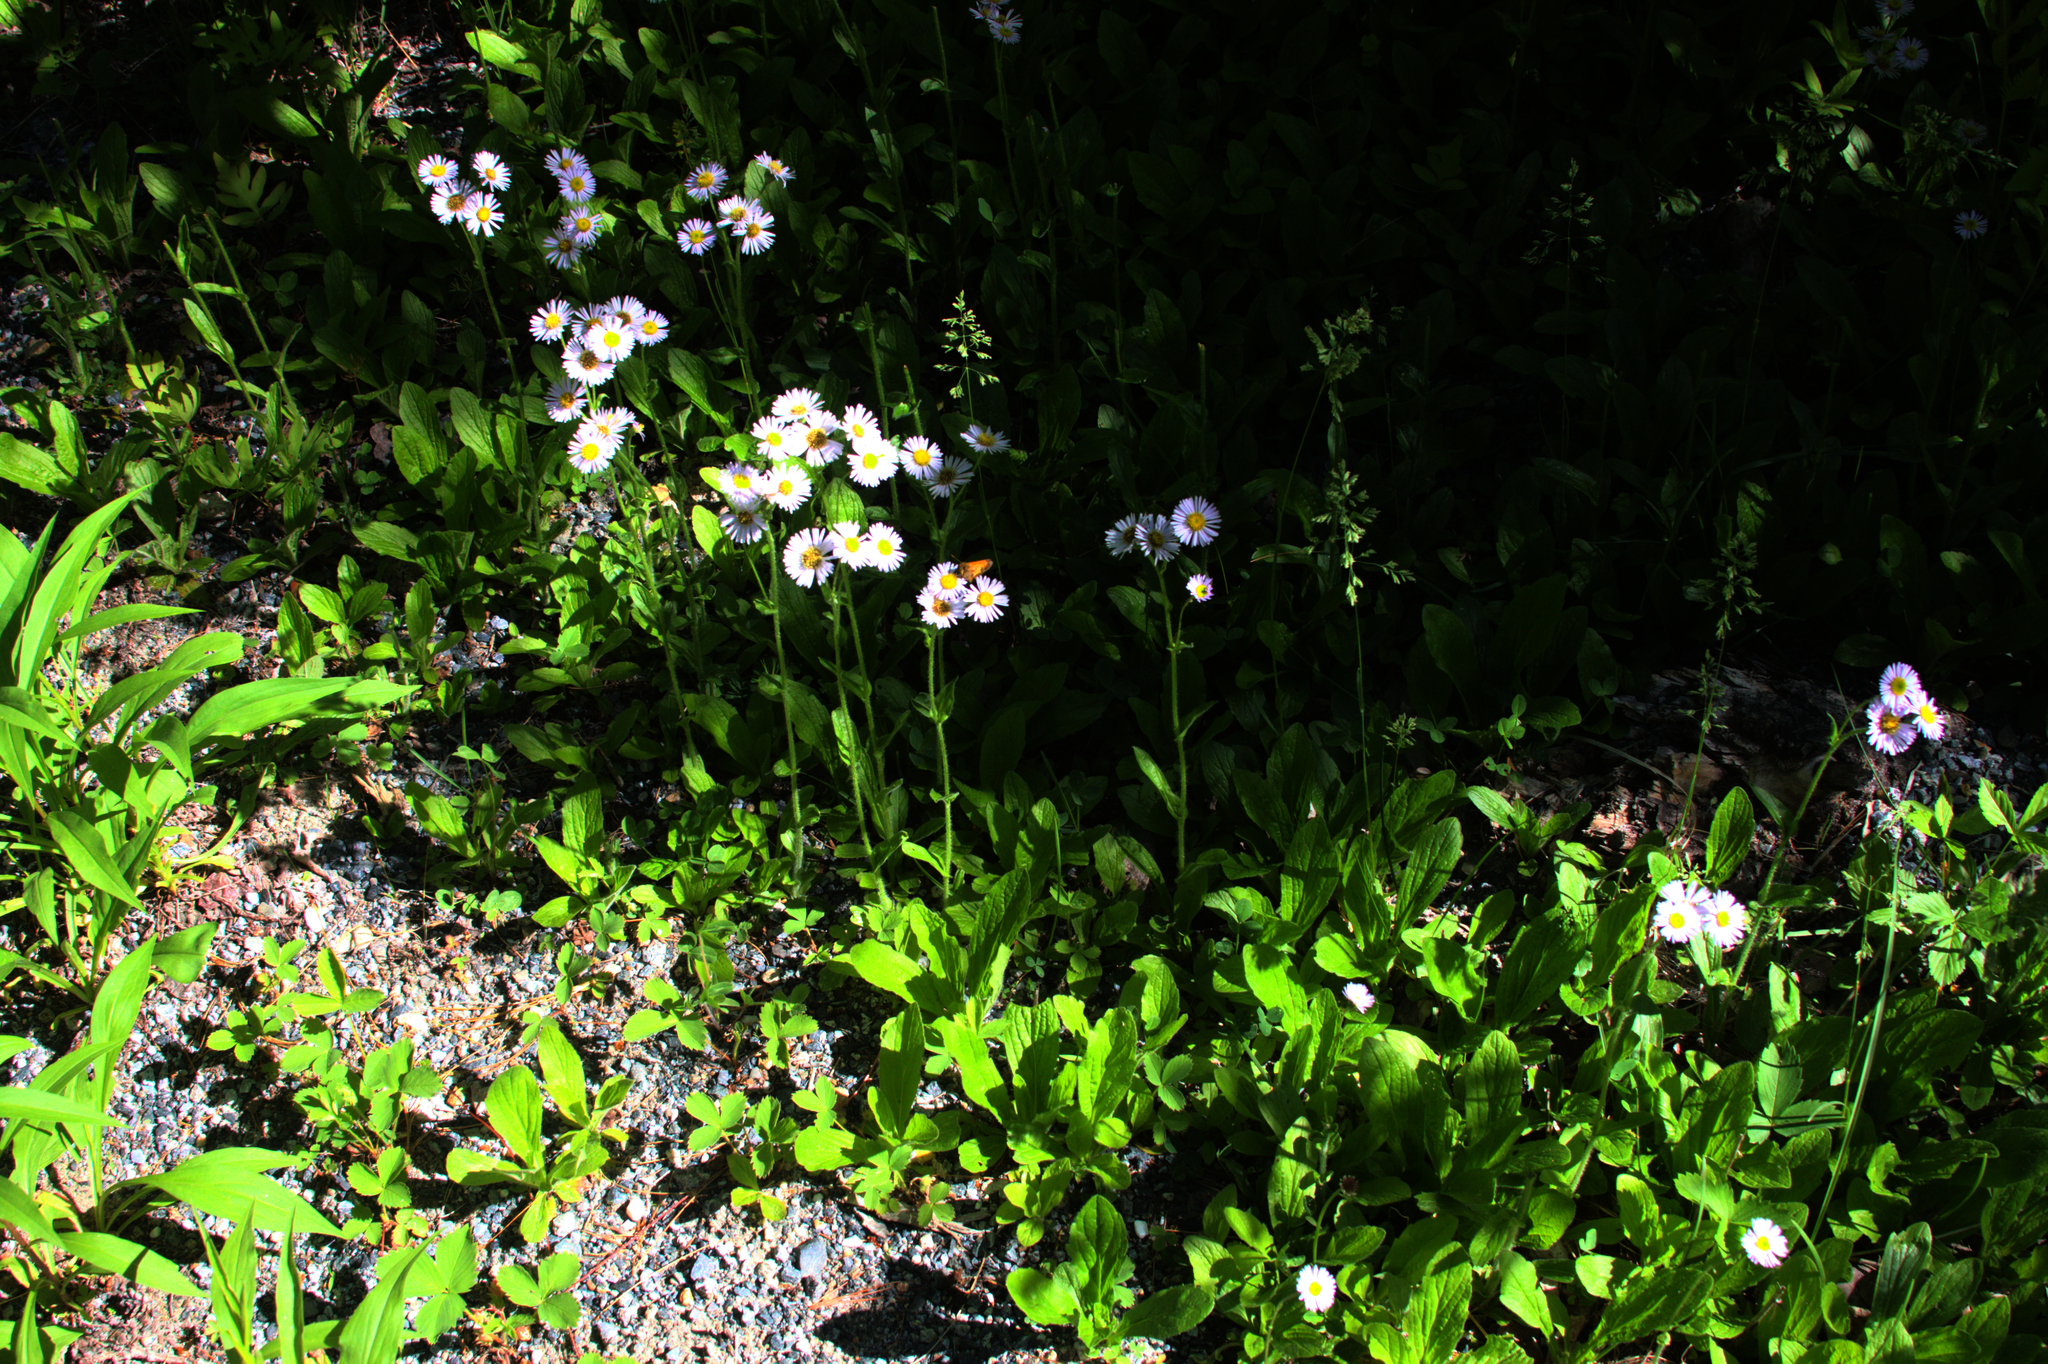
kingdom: Plantae
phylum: Tracheophyta
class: Magnoliopsida
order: Asterales
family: Asteraceae
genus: Erigeron
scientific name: Erigeron pulchellus
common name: Hairy fleabane
